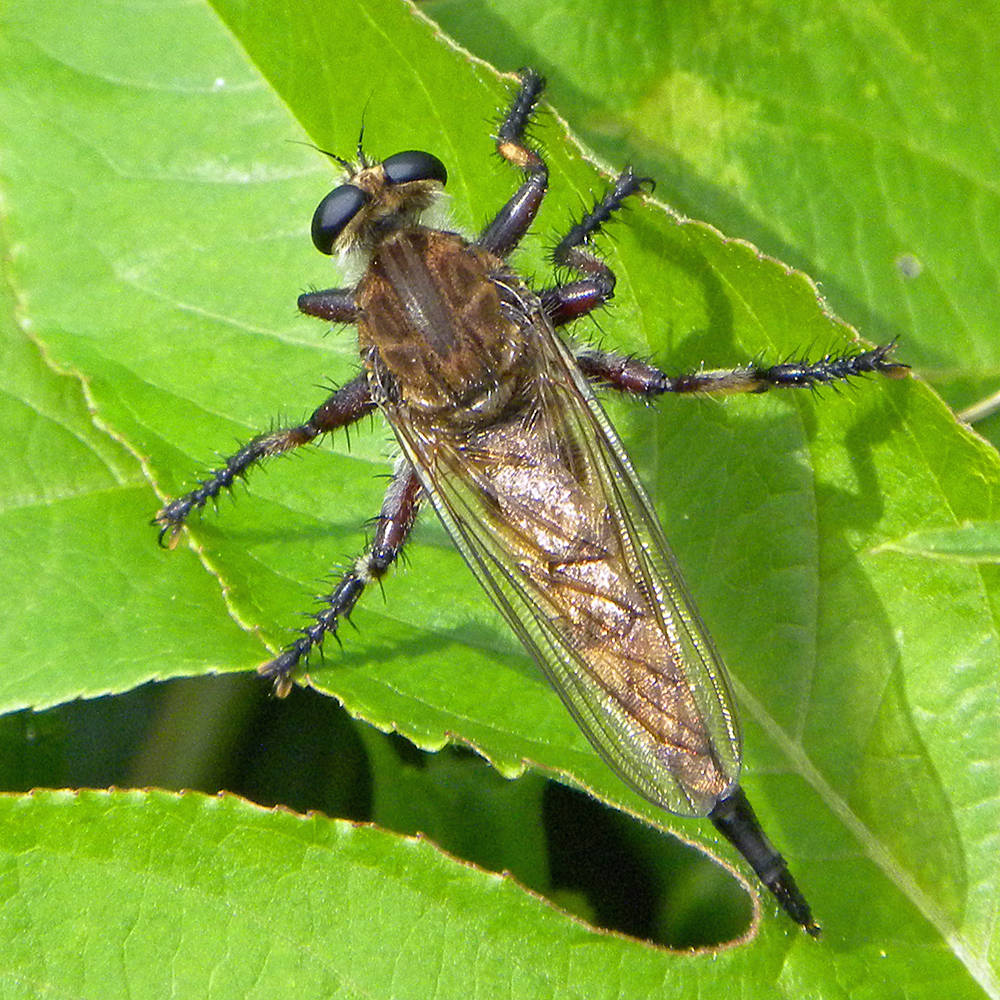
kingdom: Animalia
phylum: Arthropoda
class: Insecta
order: Diptera
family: Asilidae
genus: Promachus
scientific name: Promachus hinei
